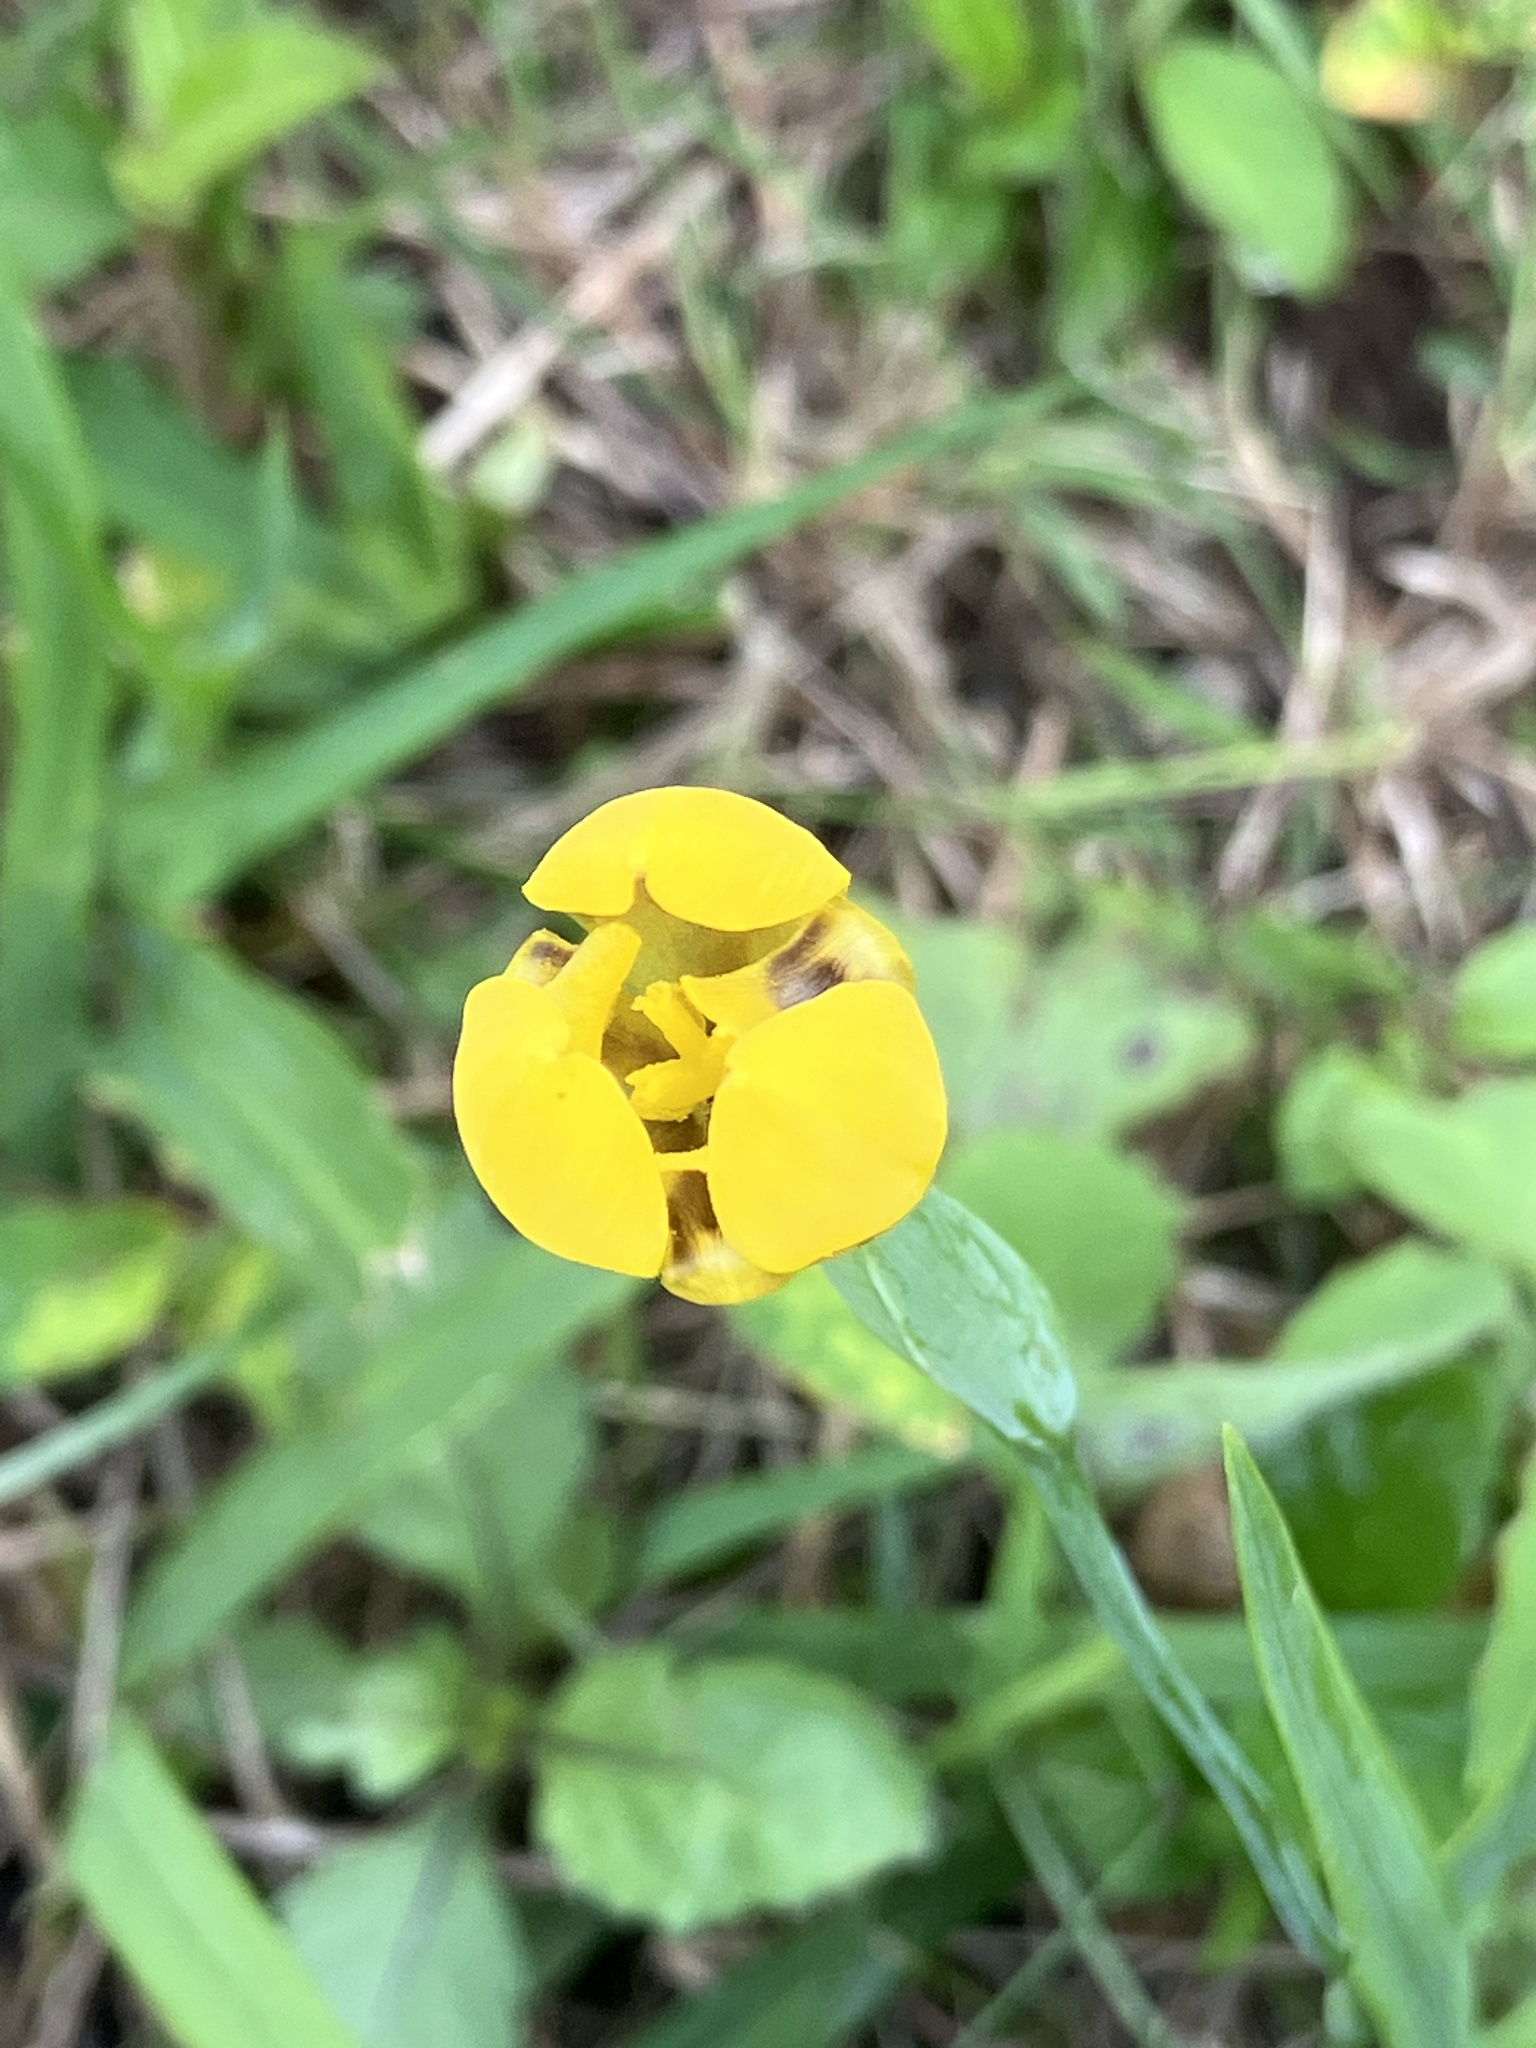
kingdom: Plantae
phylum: Tracheophyta
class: Liliopsida
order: Asparagales
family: Iridaceae
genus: Trimezia
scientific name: Trimezia martinicensis
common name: Martinique trimezia
